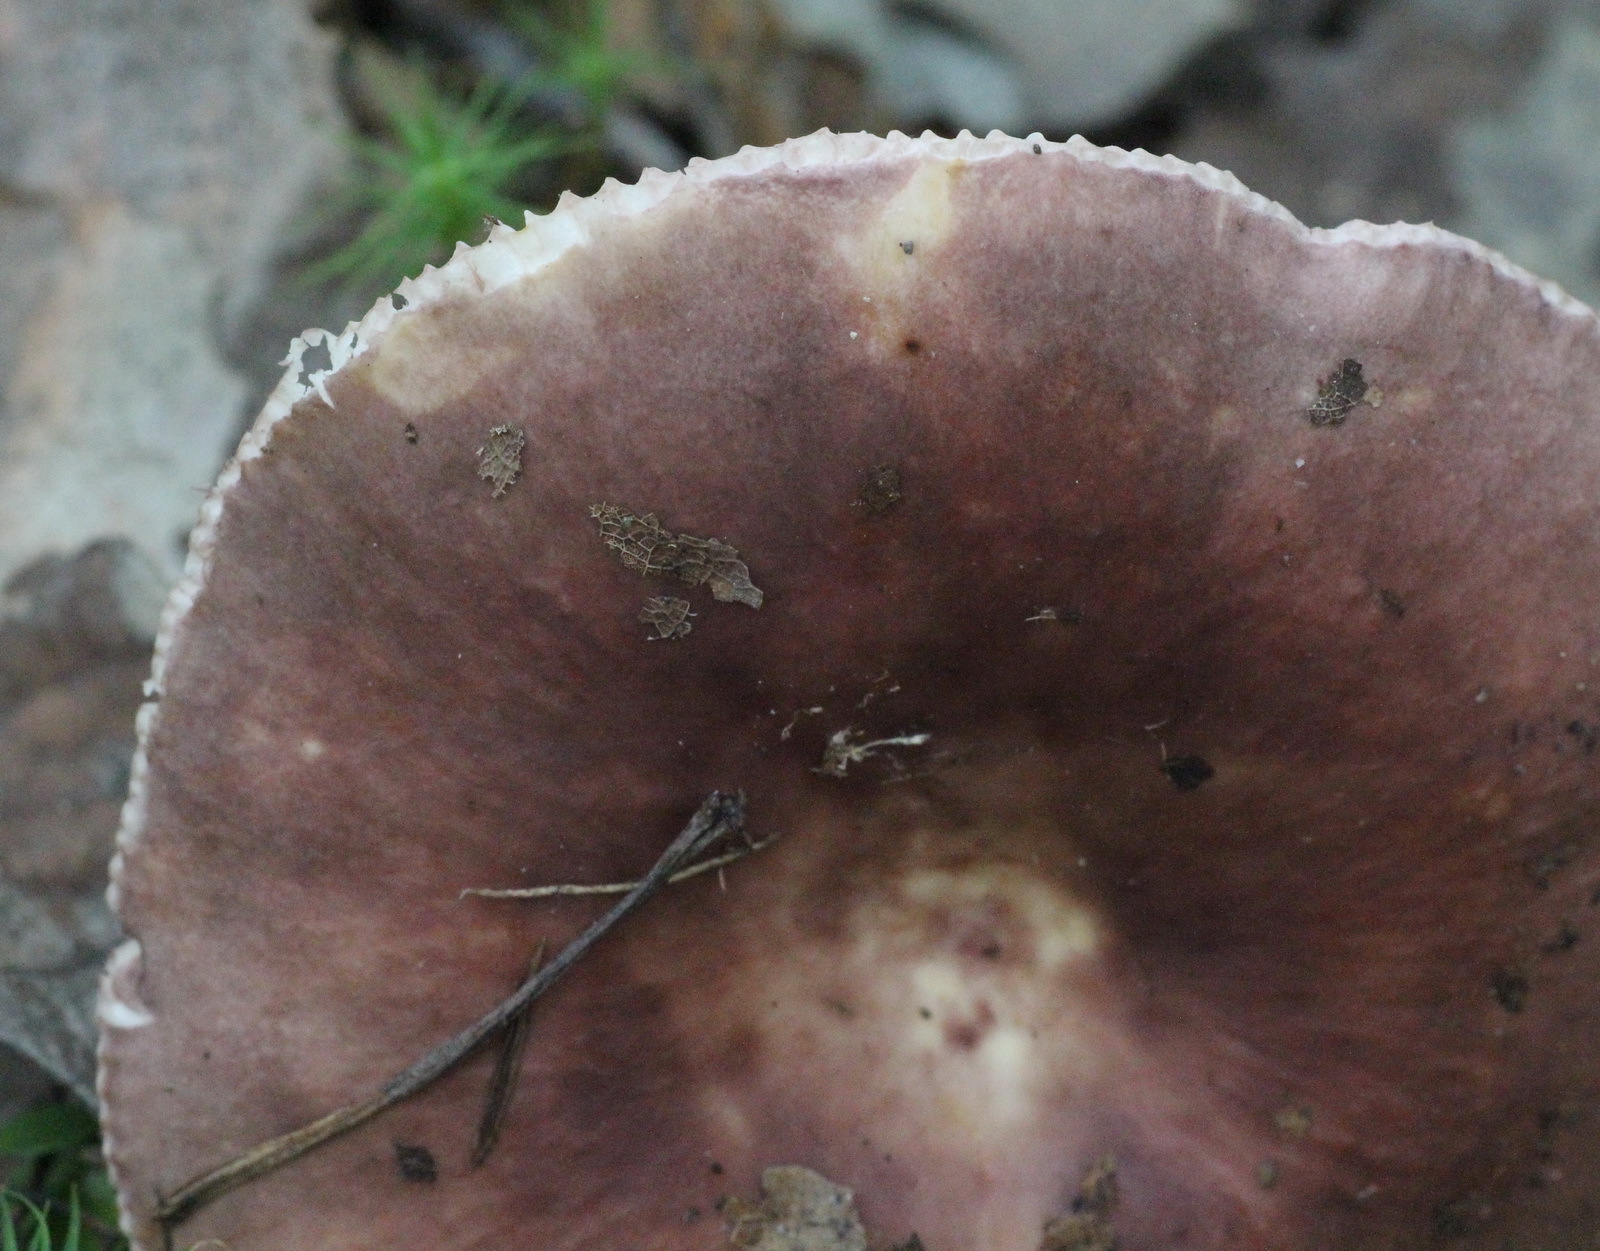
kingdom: Fungi
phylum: Basidiomycota
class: Agaricomycetes
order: Russulales
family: Russulaceae
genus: Russula
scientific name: Russula vesca
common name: Bare-toothed russula
